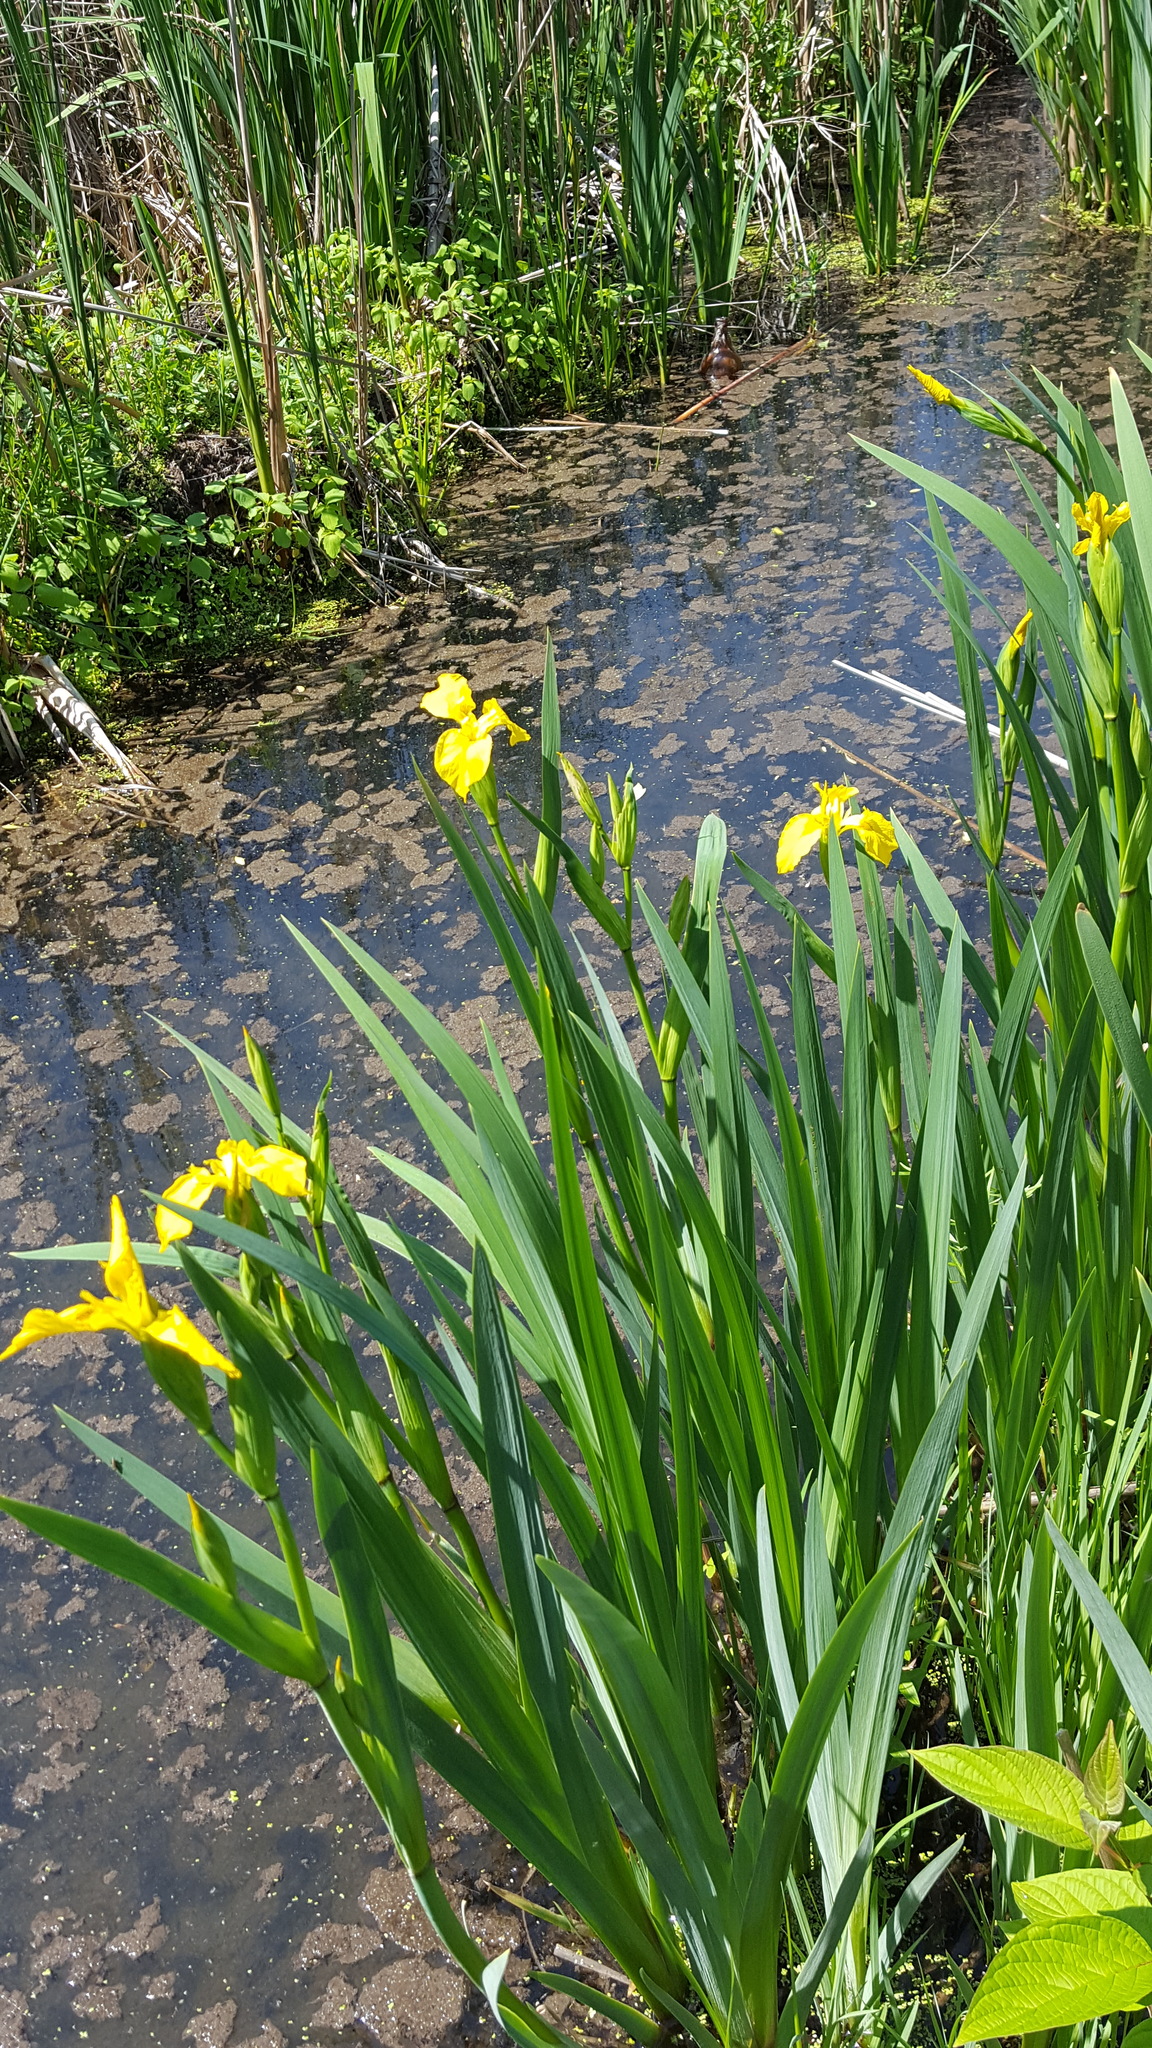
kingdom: Plantae
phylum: Tracheophyta
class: Liliopsida
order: Asparagales
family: Iridaceae
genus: Iris
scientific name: Iris pseudacorus
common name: Yellow flag
